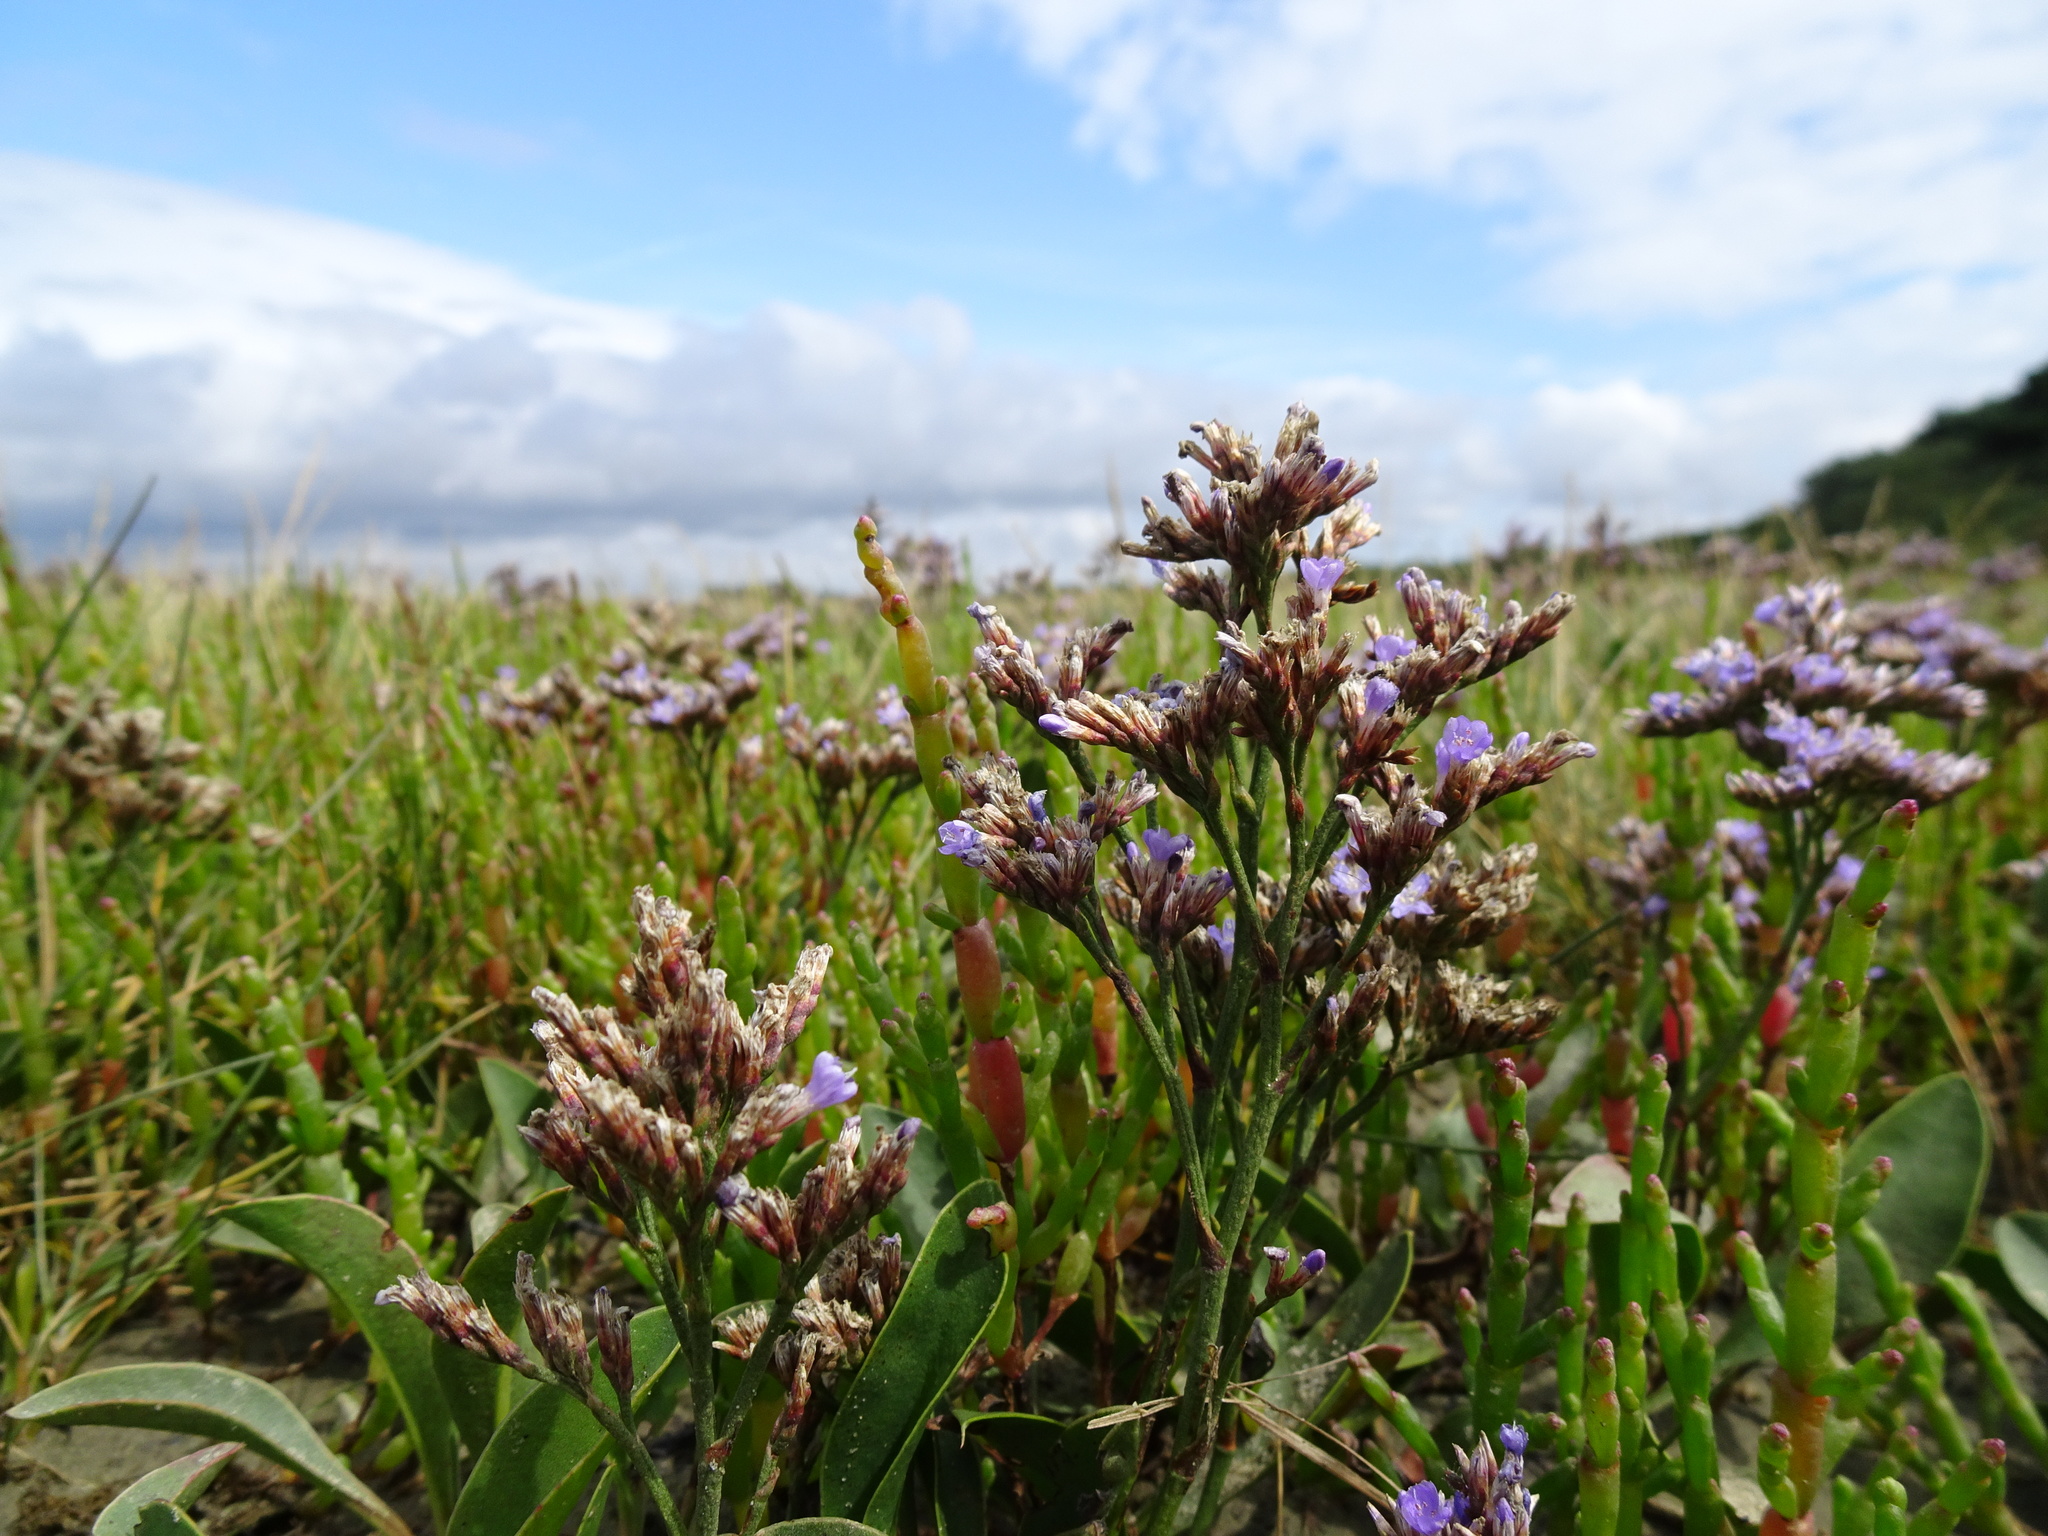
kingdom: Plantae
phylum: Tracheophyta
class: Magnoliopsida
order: Caryophyllales
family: Plumbaginaceae
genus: Limonium
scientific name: Limonium vulgare
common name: Common sea-lavender
